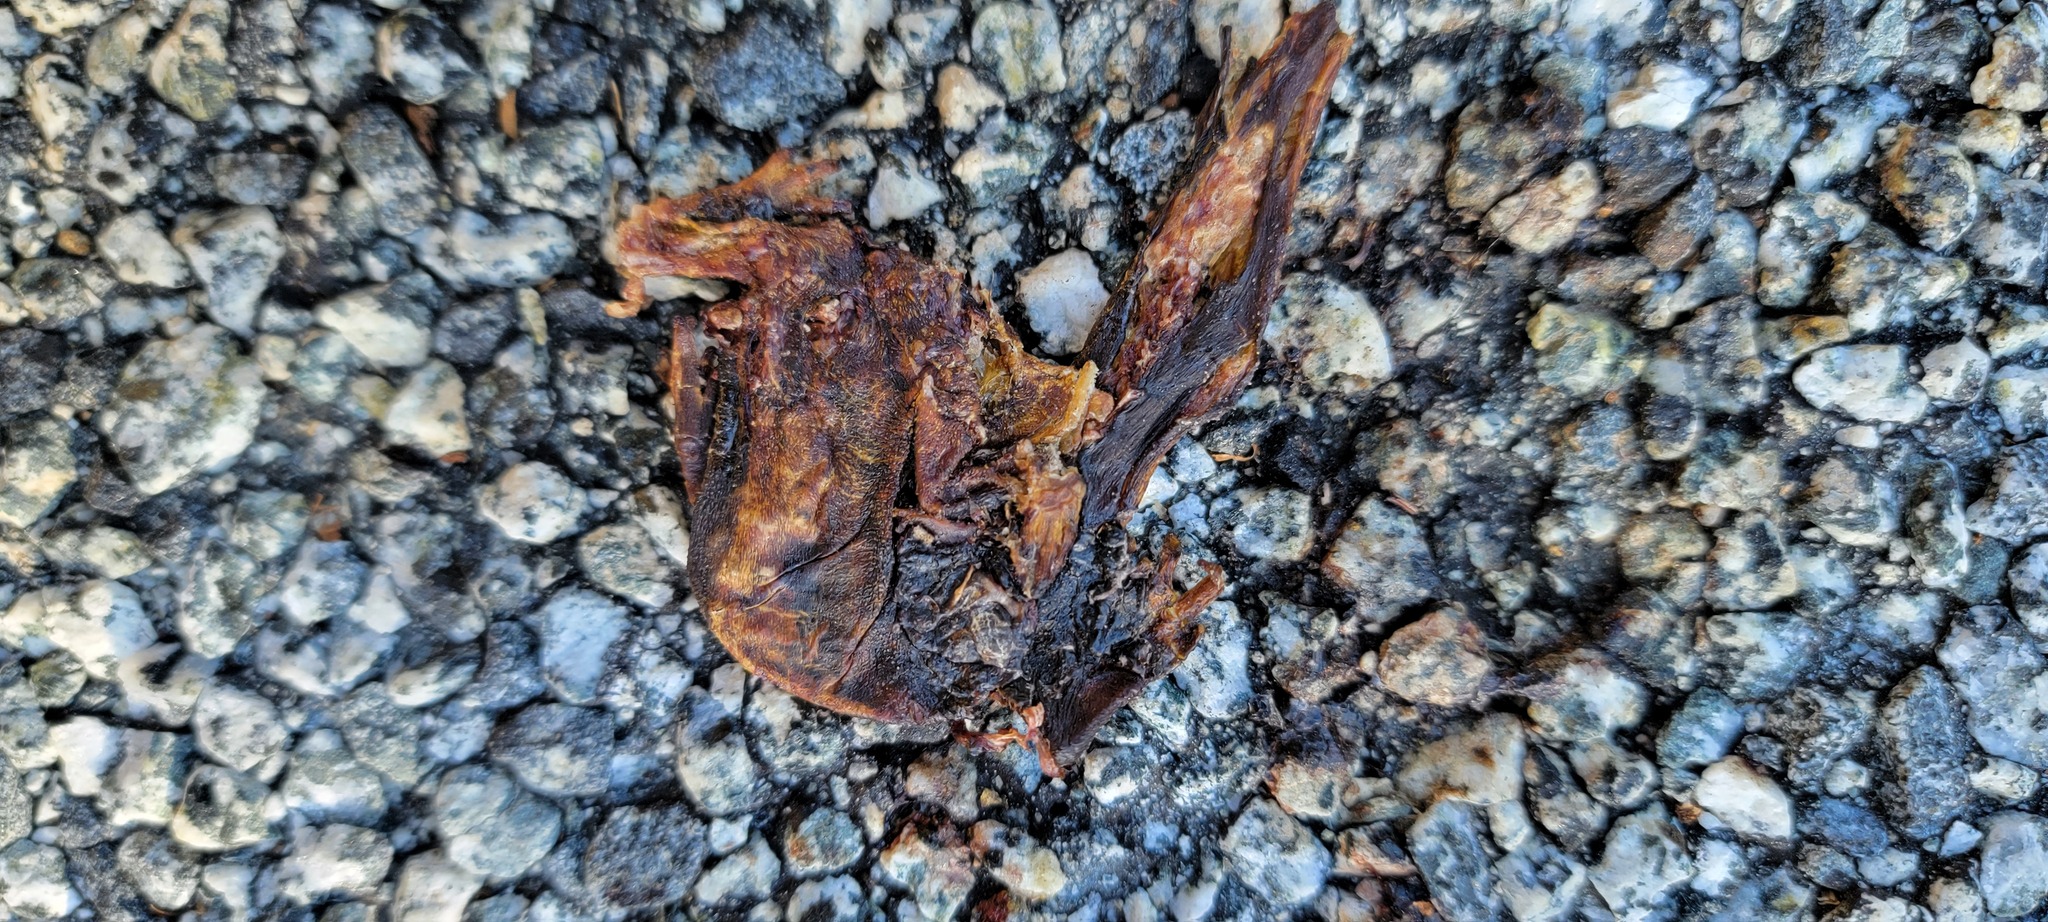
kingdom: Animalia
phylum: Chordata
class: Amphibia
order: Caudata
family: Salamandridae
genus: Taricha
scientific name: Taricha
